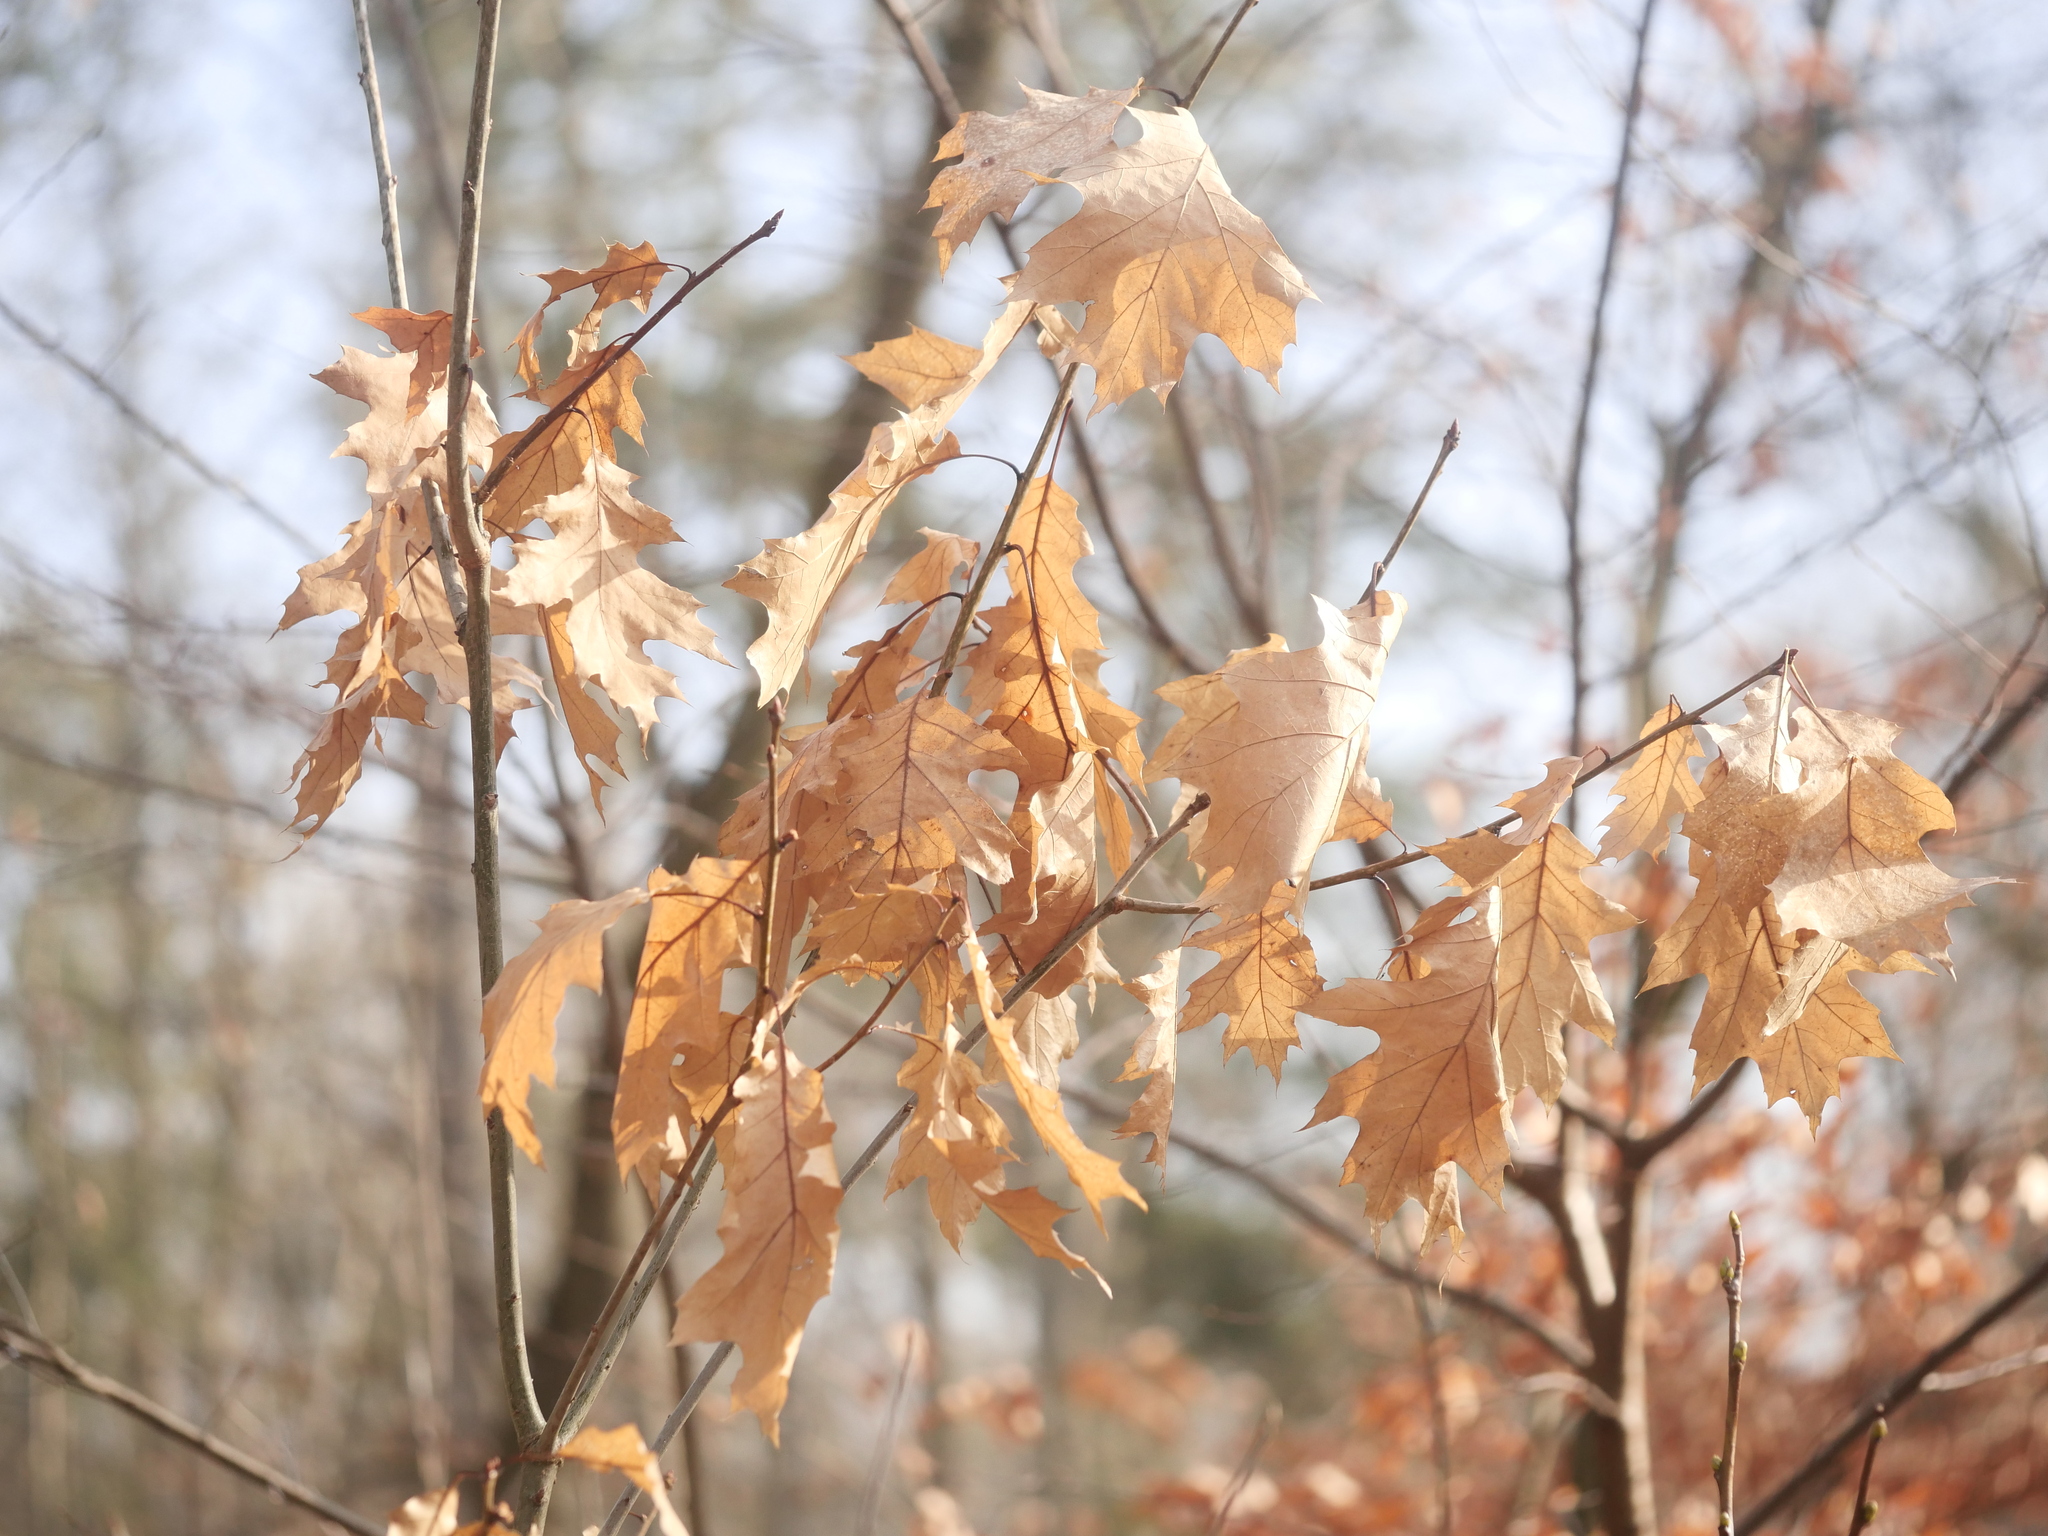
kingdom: Plantae
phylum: Tracheophyta
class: Magnoliopsida
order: Fagales
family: Fagaceae
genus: Quercus
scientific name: Quercus rubra
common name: Red oak
